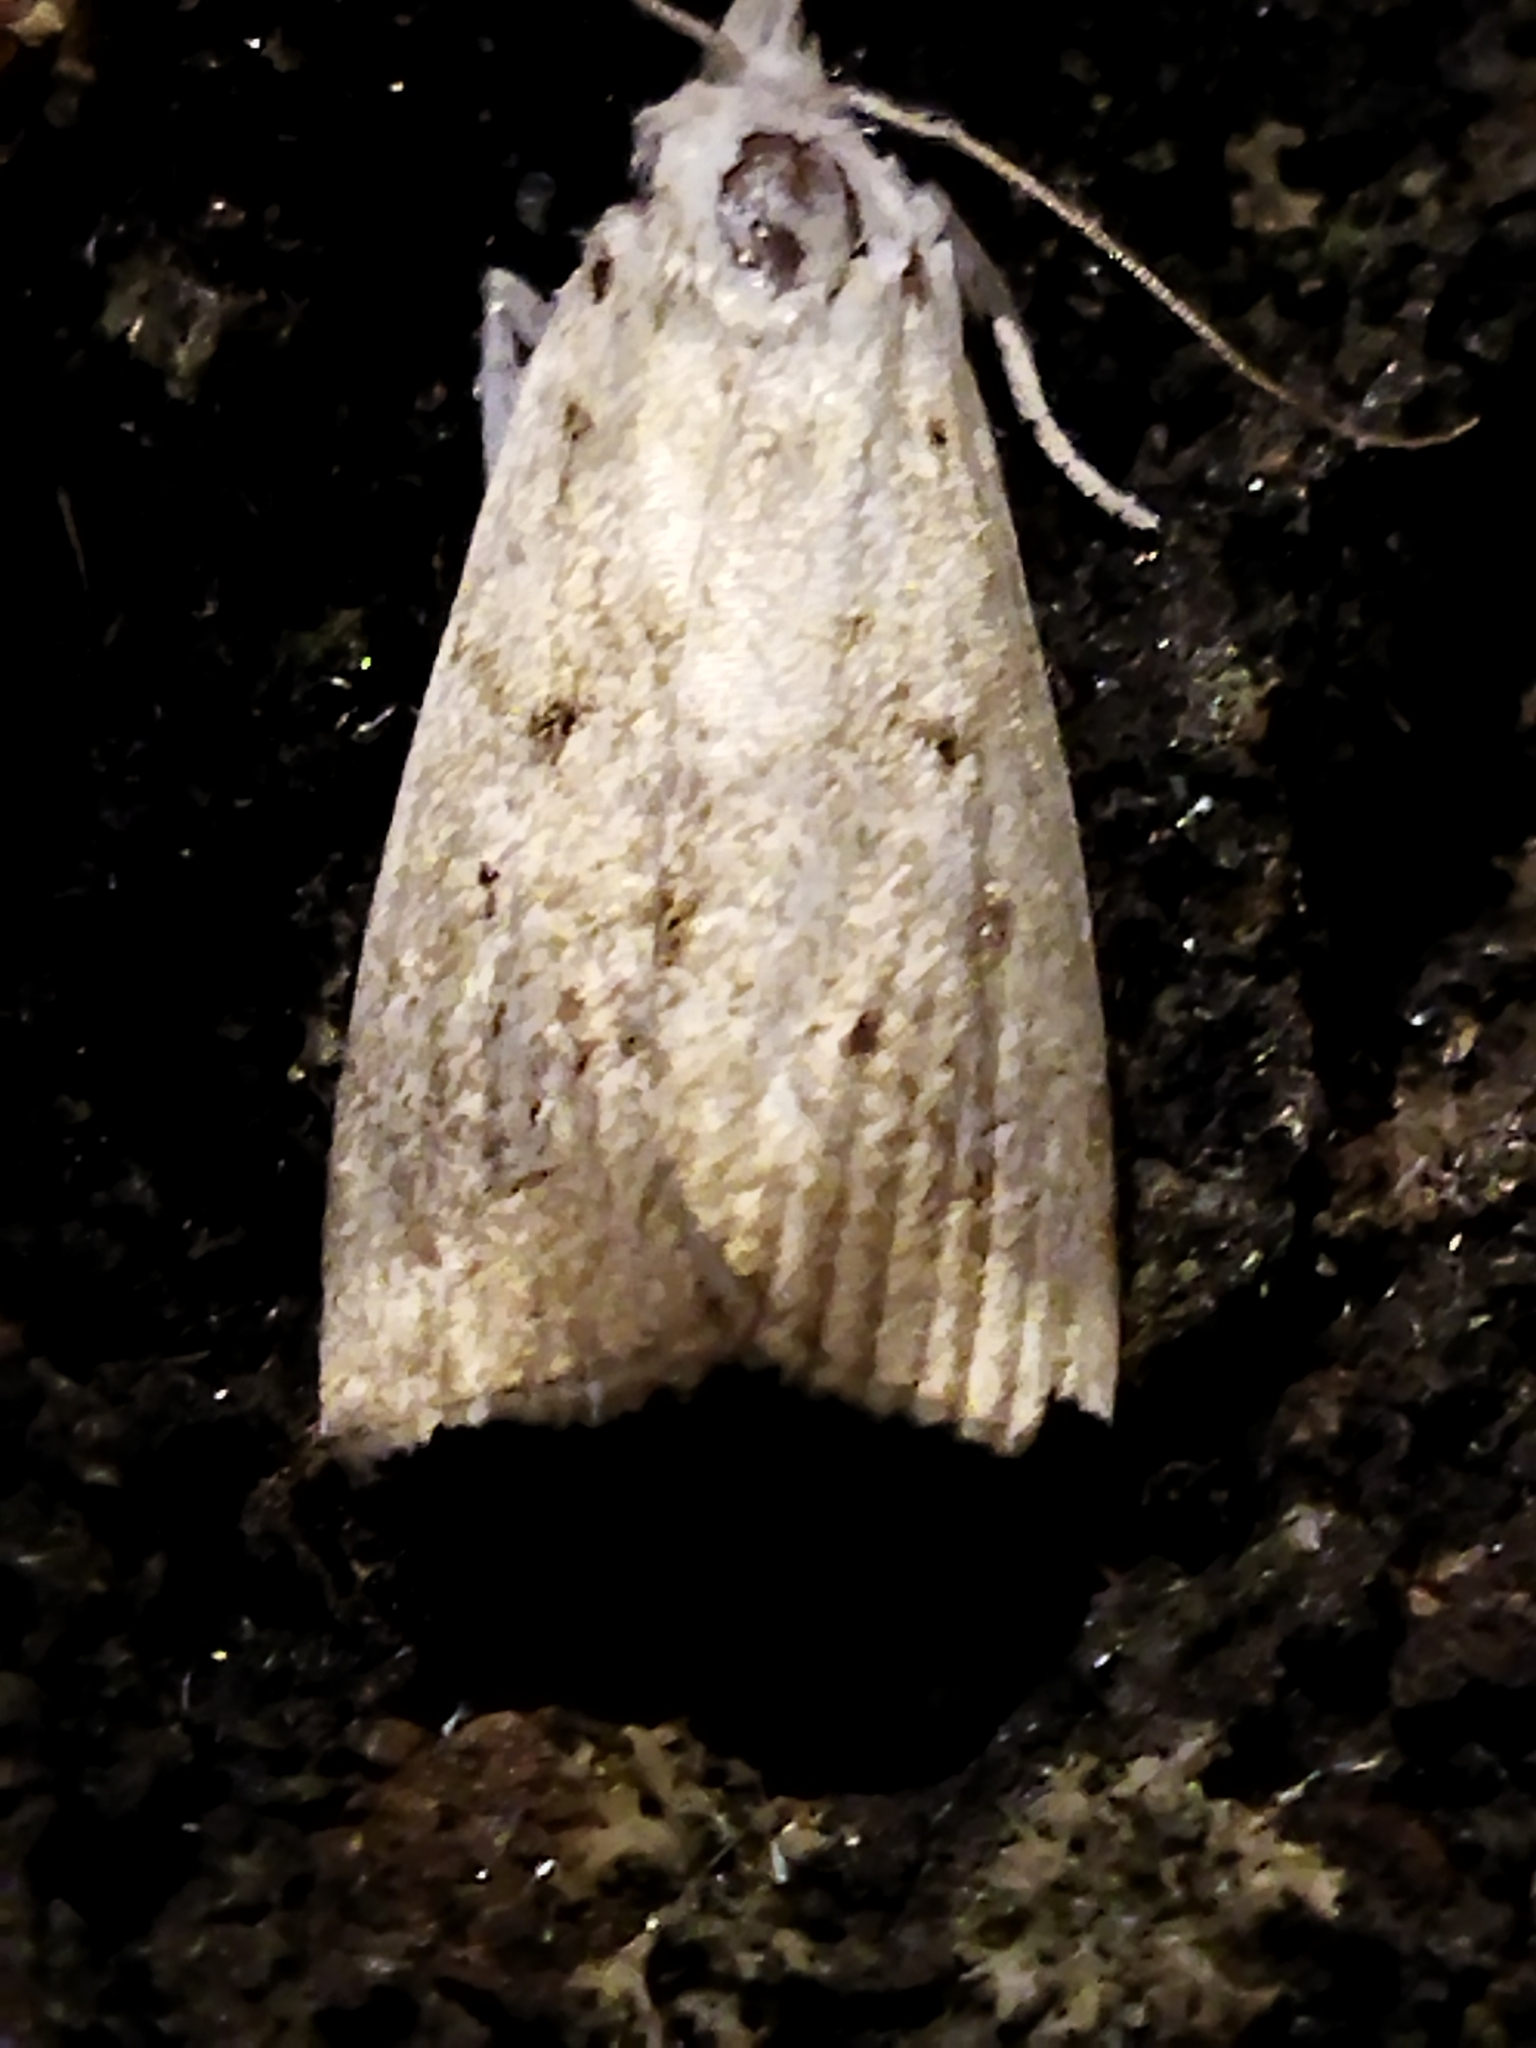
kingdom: Animalia
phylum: Arthropoda
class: Insecta
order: Lepidoptera
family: Crambidae
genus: Calamotropha
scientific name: Calamotropha paludella
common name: Bulrush veneer
